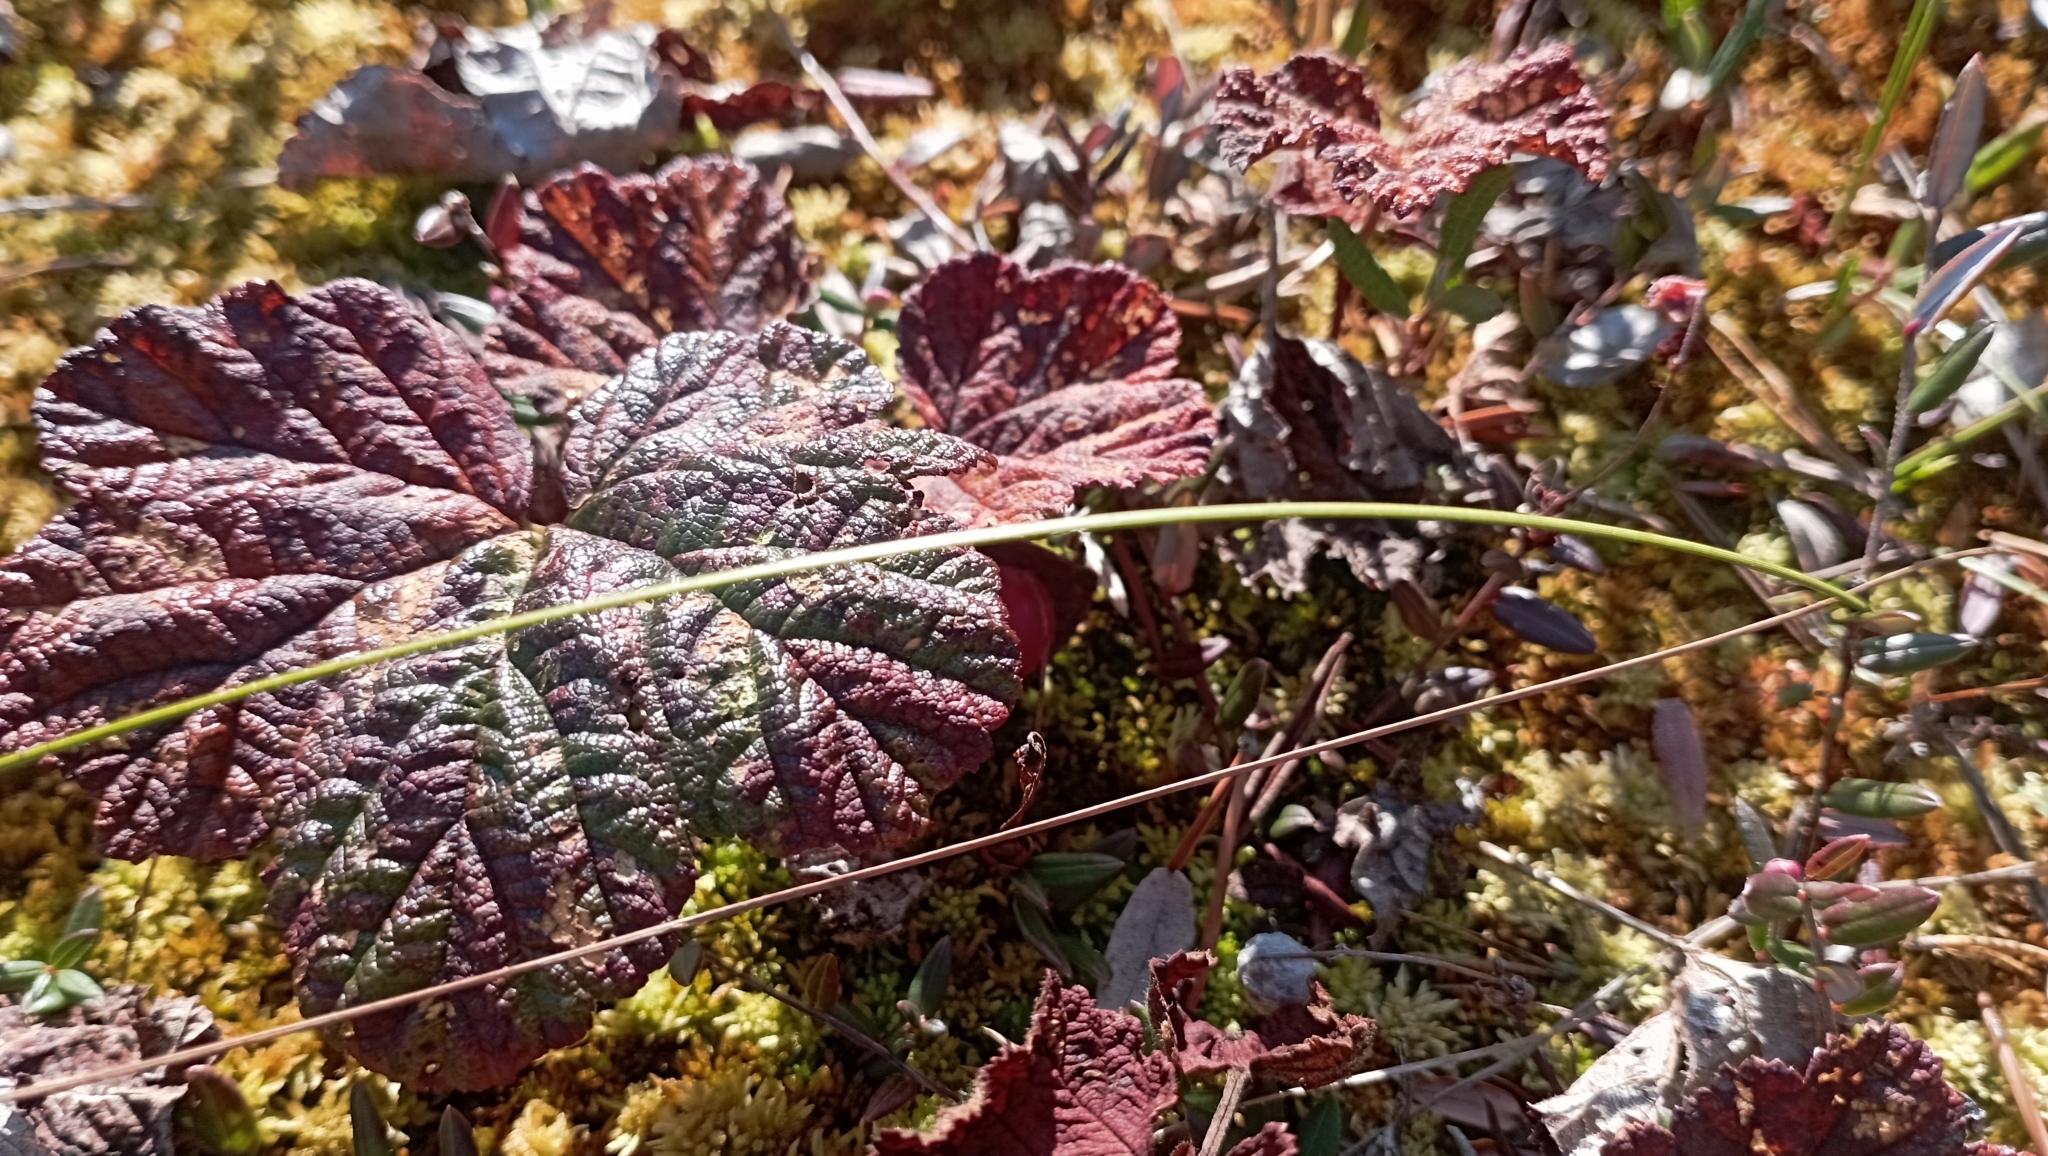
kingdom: Plantae
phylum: Tracheophyta
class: Magnoliopsida
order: Rosales
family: Rosaceae
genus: Rubus
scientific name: Rubus chamaemorus
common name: Cloudberry
